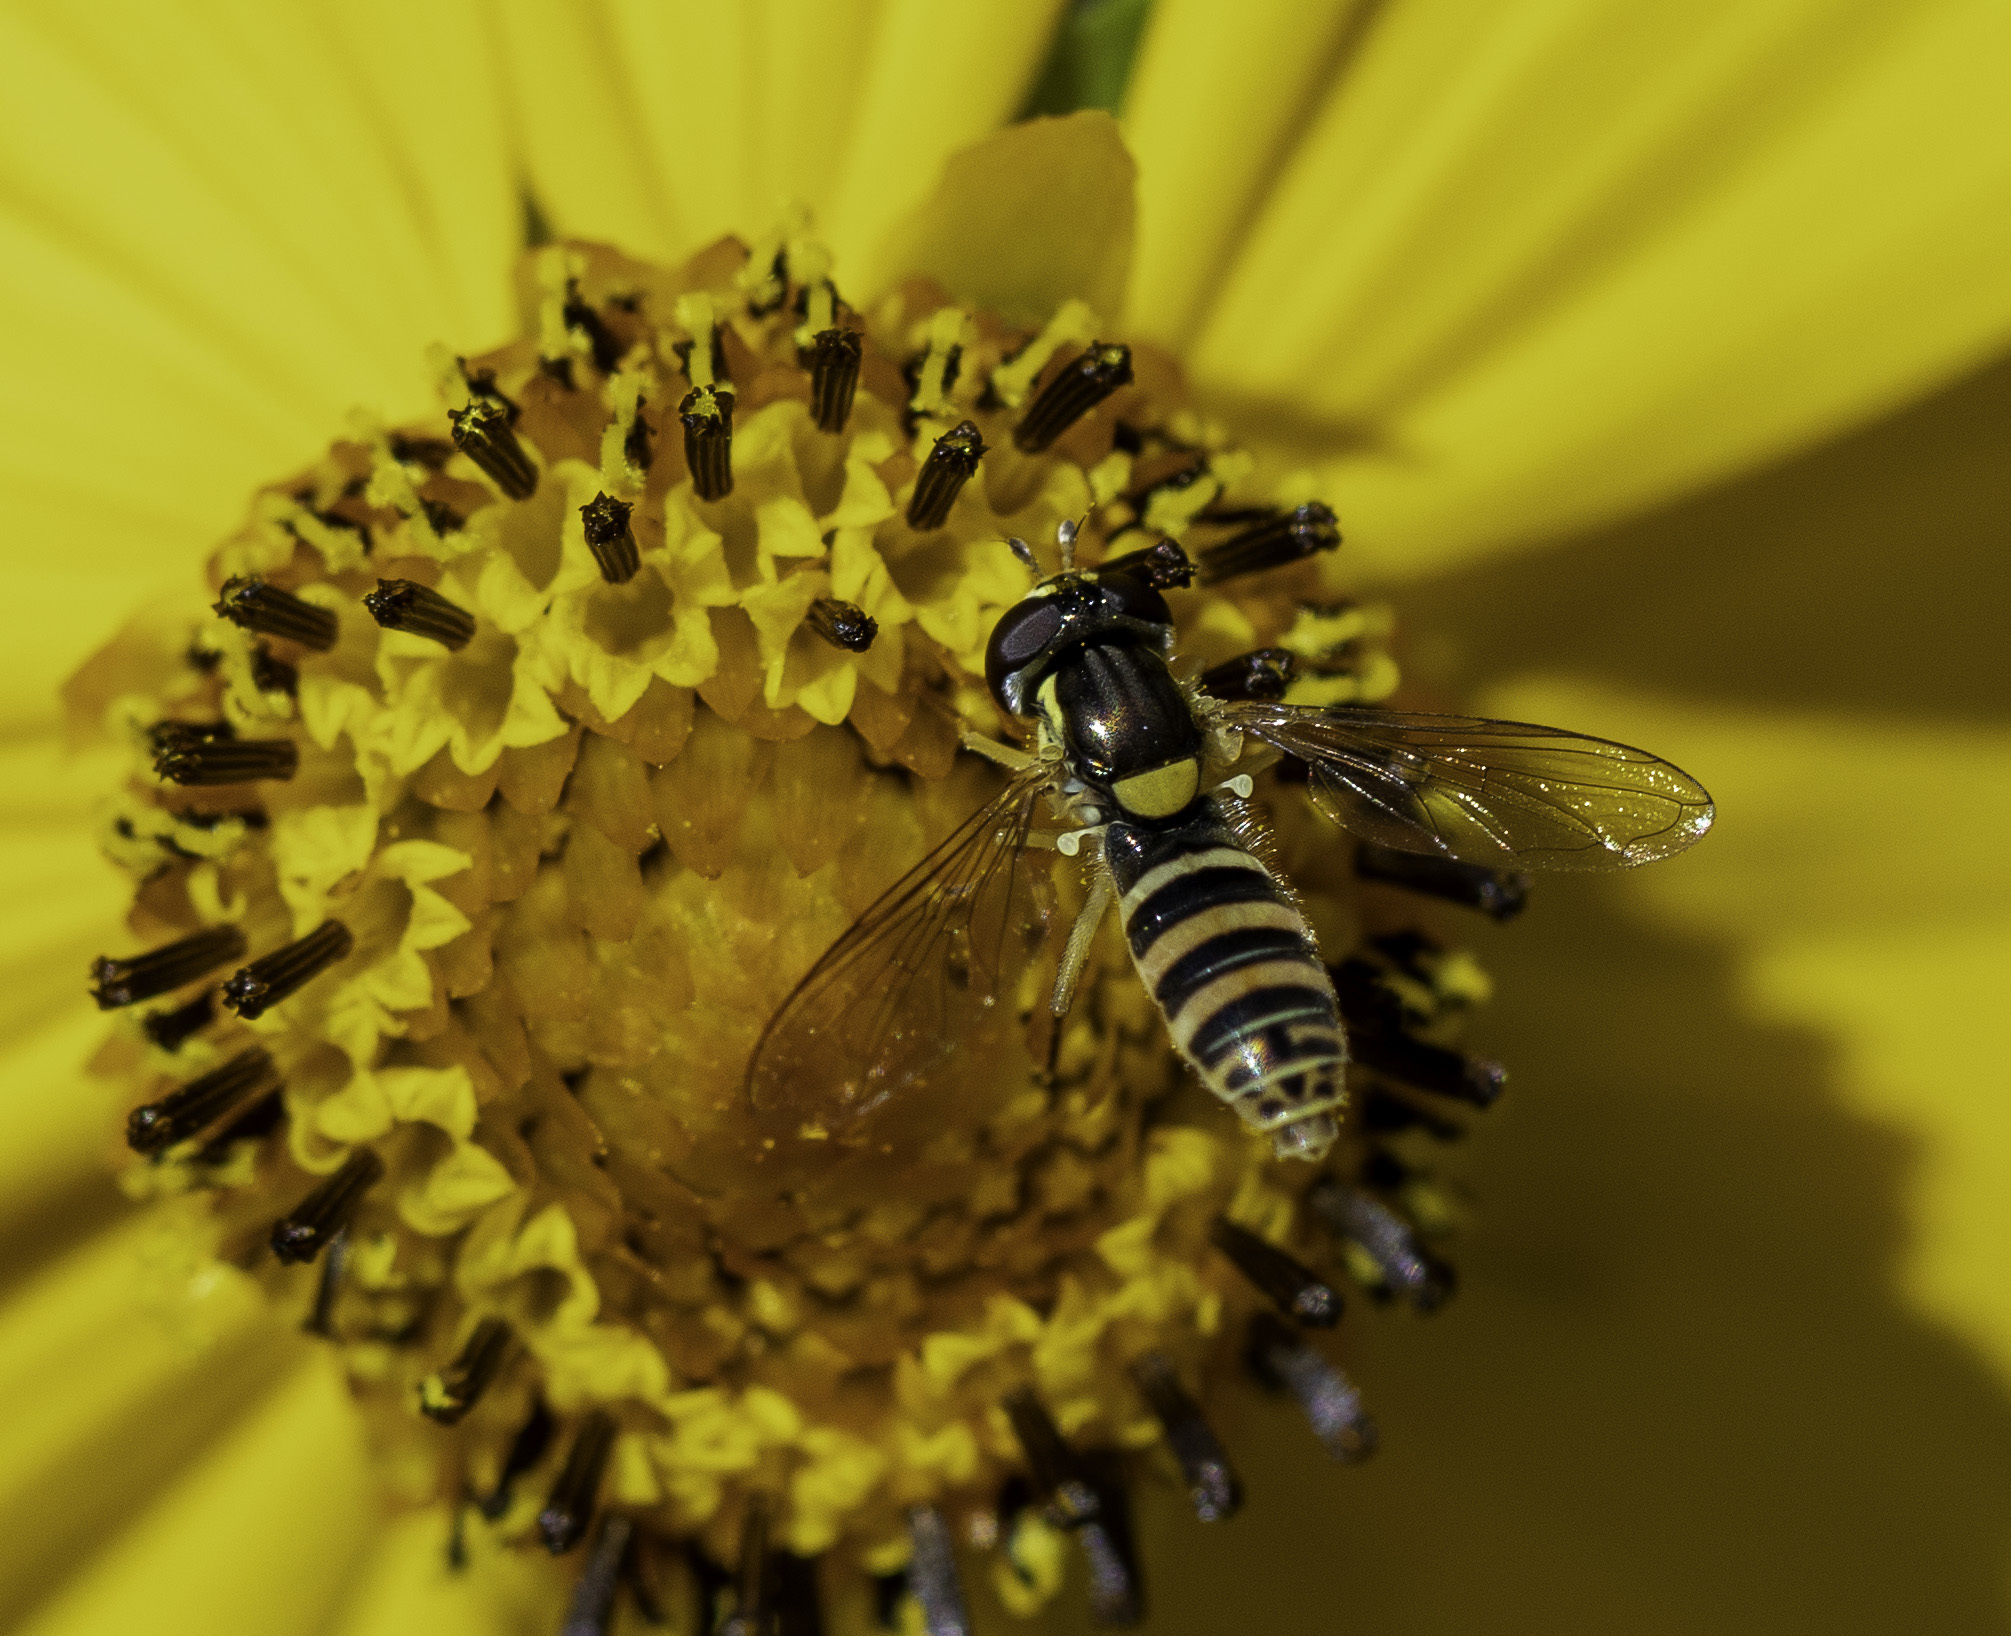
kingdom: Animalia
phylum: Arthropoda
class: Insecta
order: Diptera
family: Syrphidae
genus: Sphaerophoria
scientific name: Sphaerophoria sulphuripes
